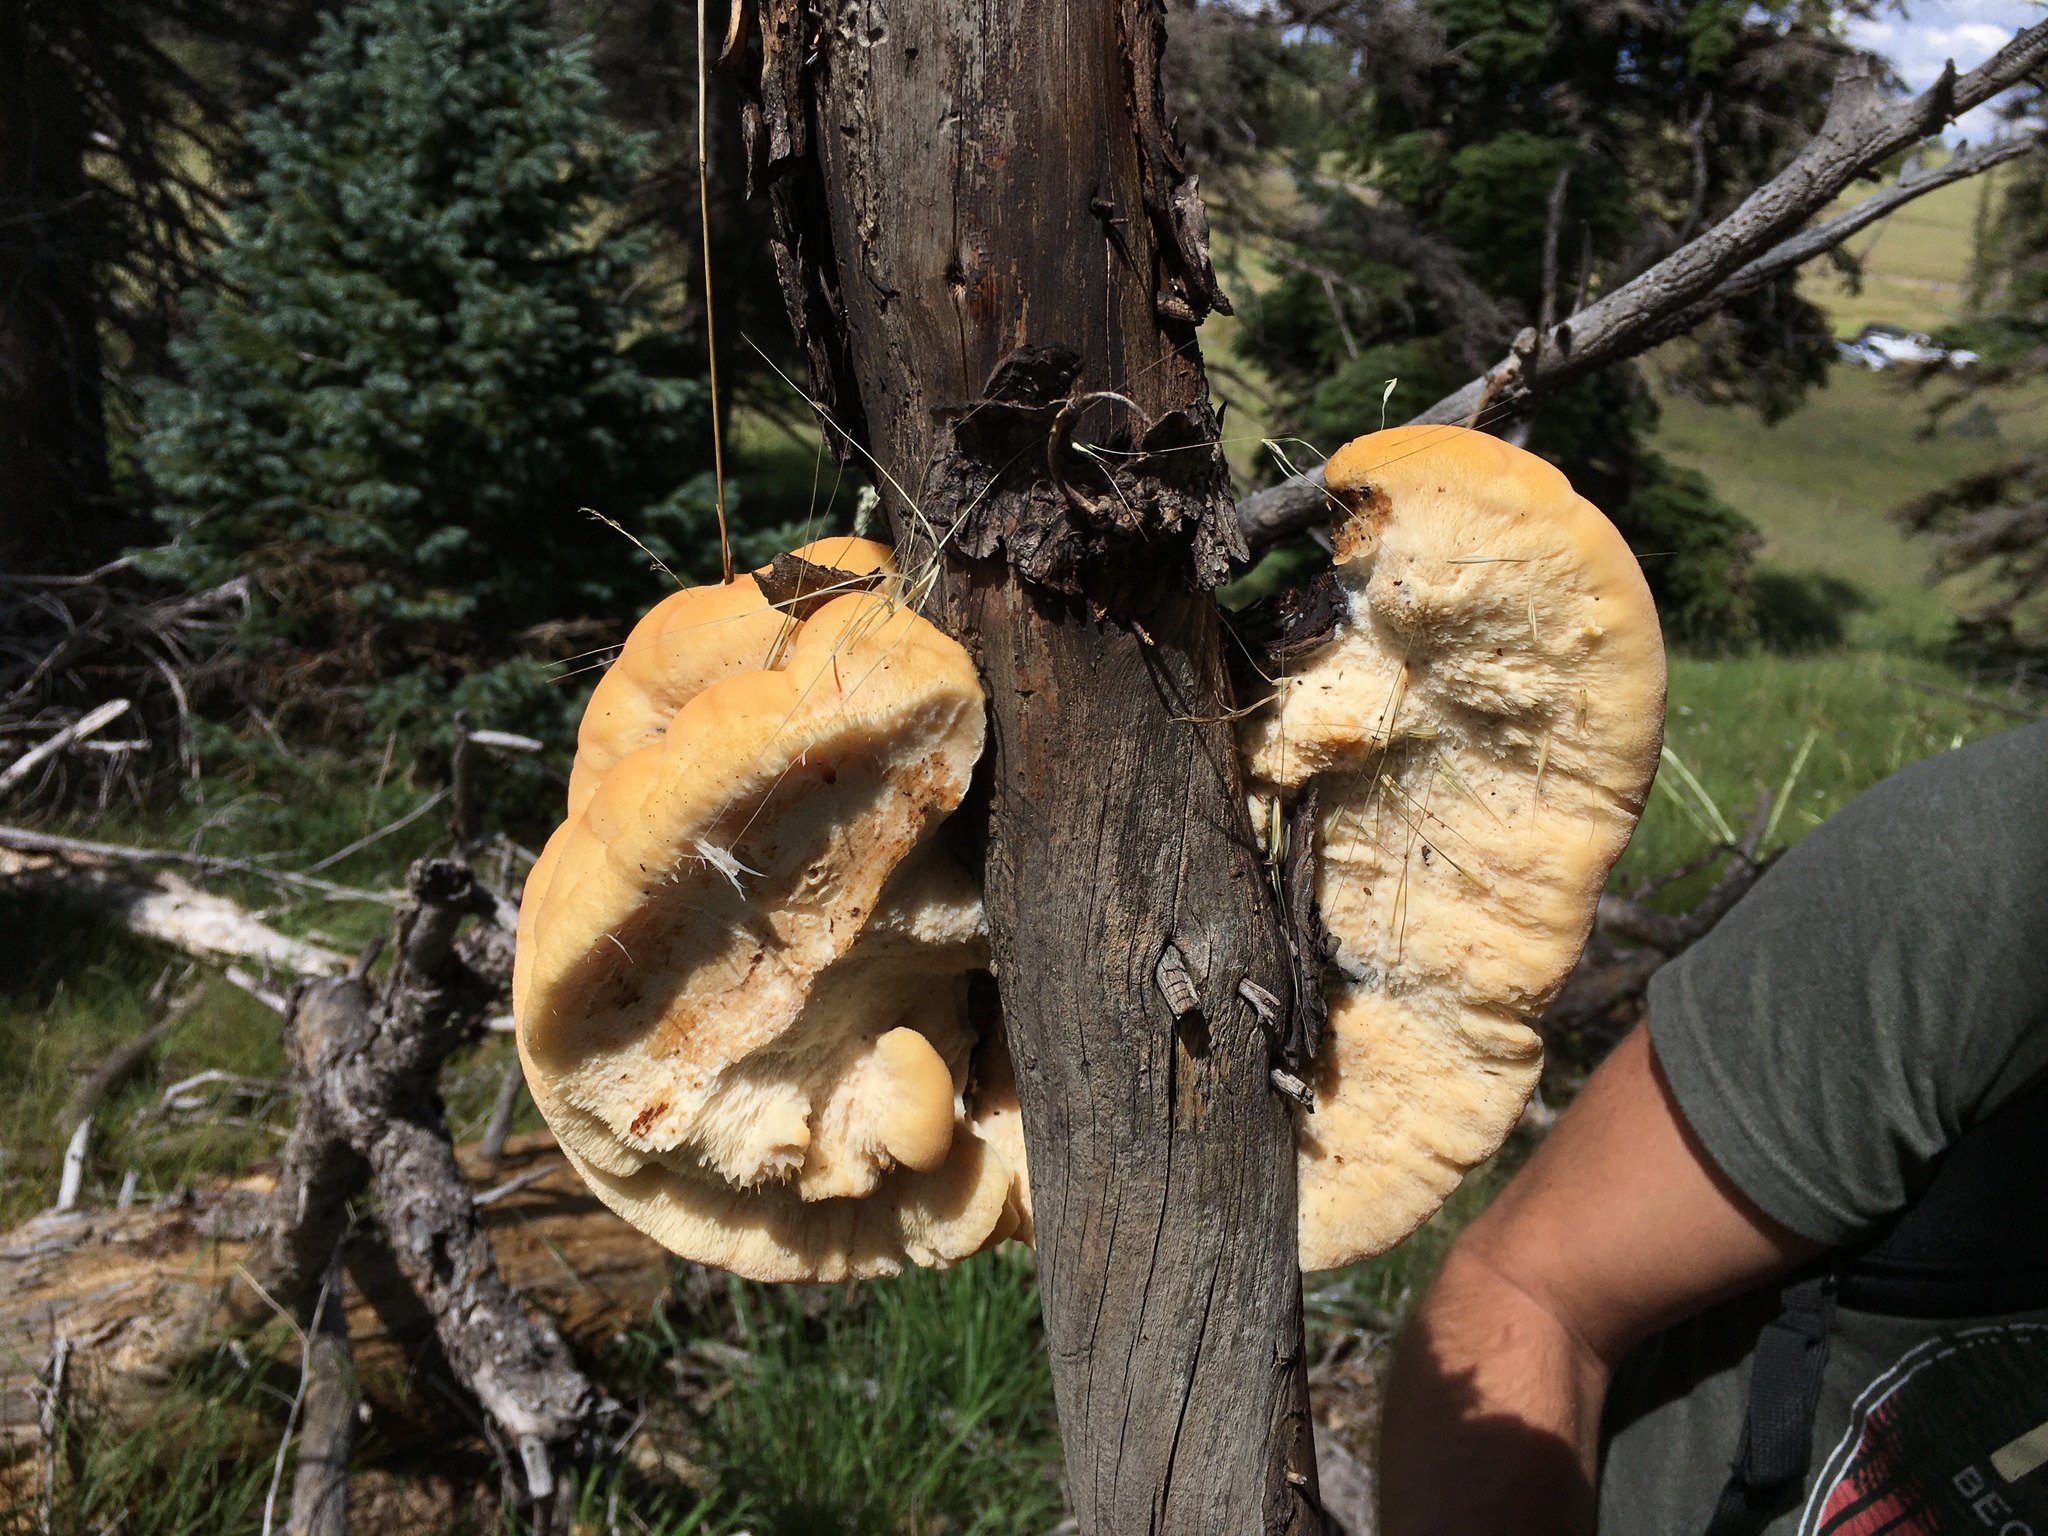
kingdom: Fungi
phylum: Basidiomycota
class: Agaricomycetes
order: Polyporales
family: Fomitopsidaceae
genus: Climacocystis
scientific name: Climacocystis borealis
